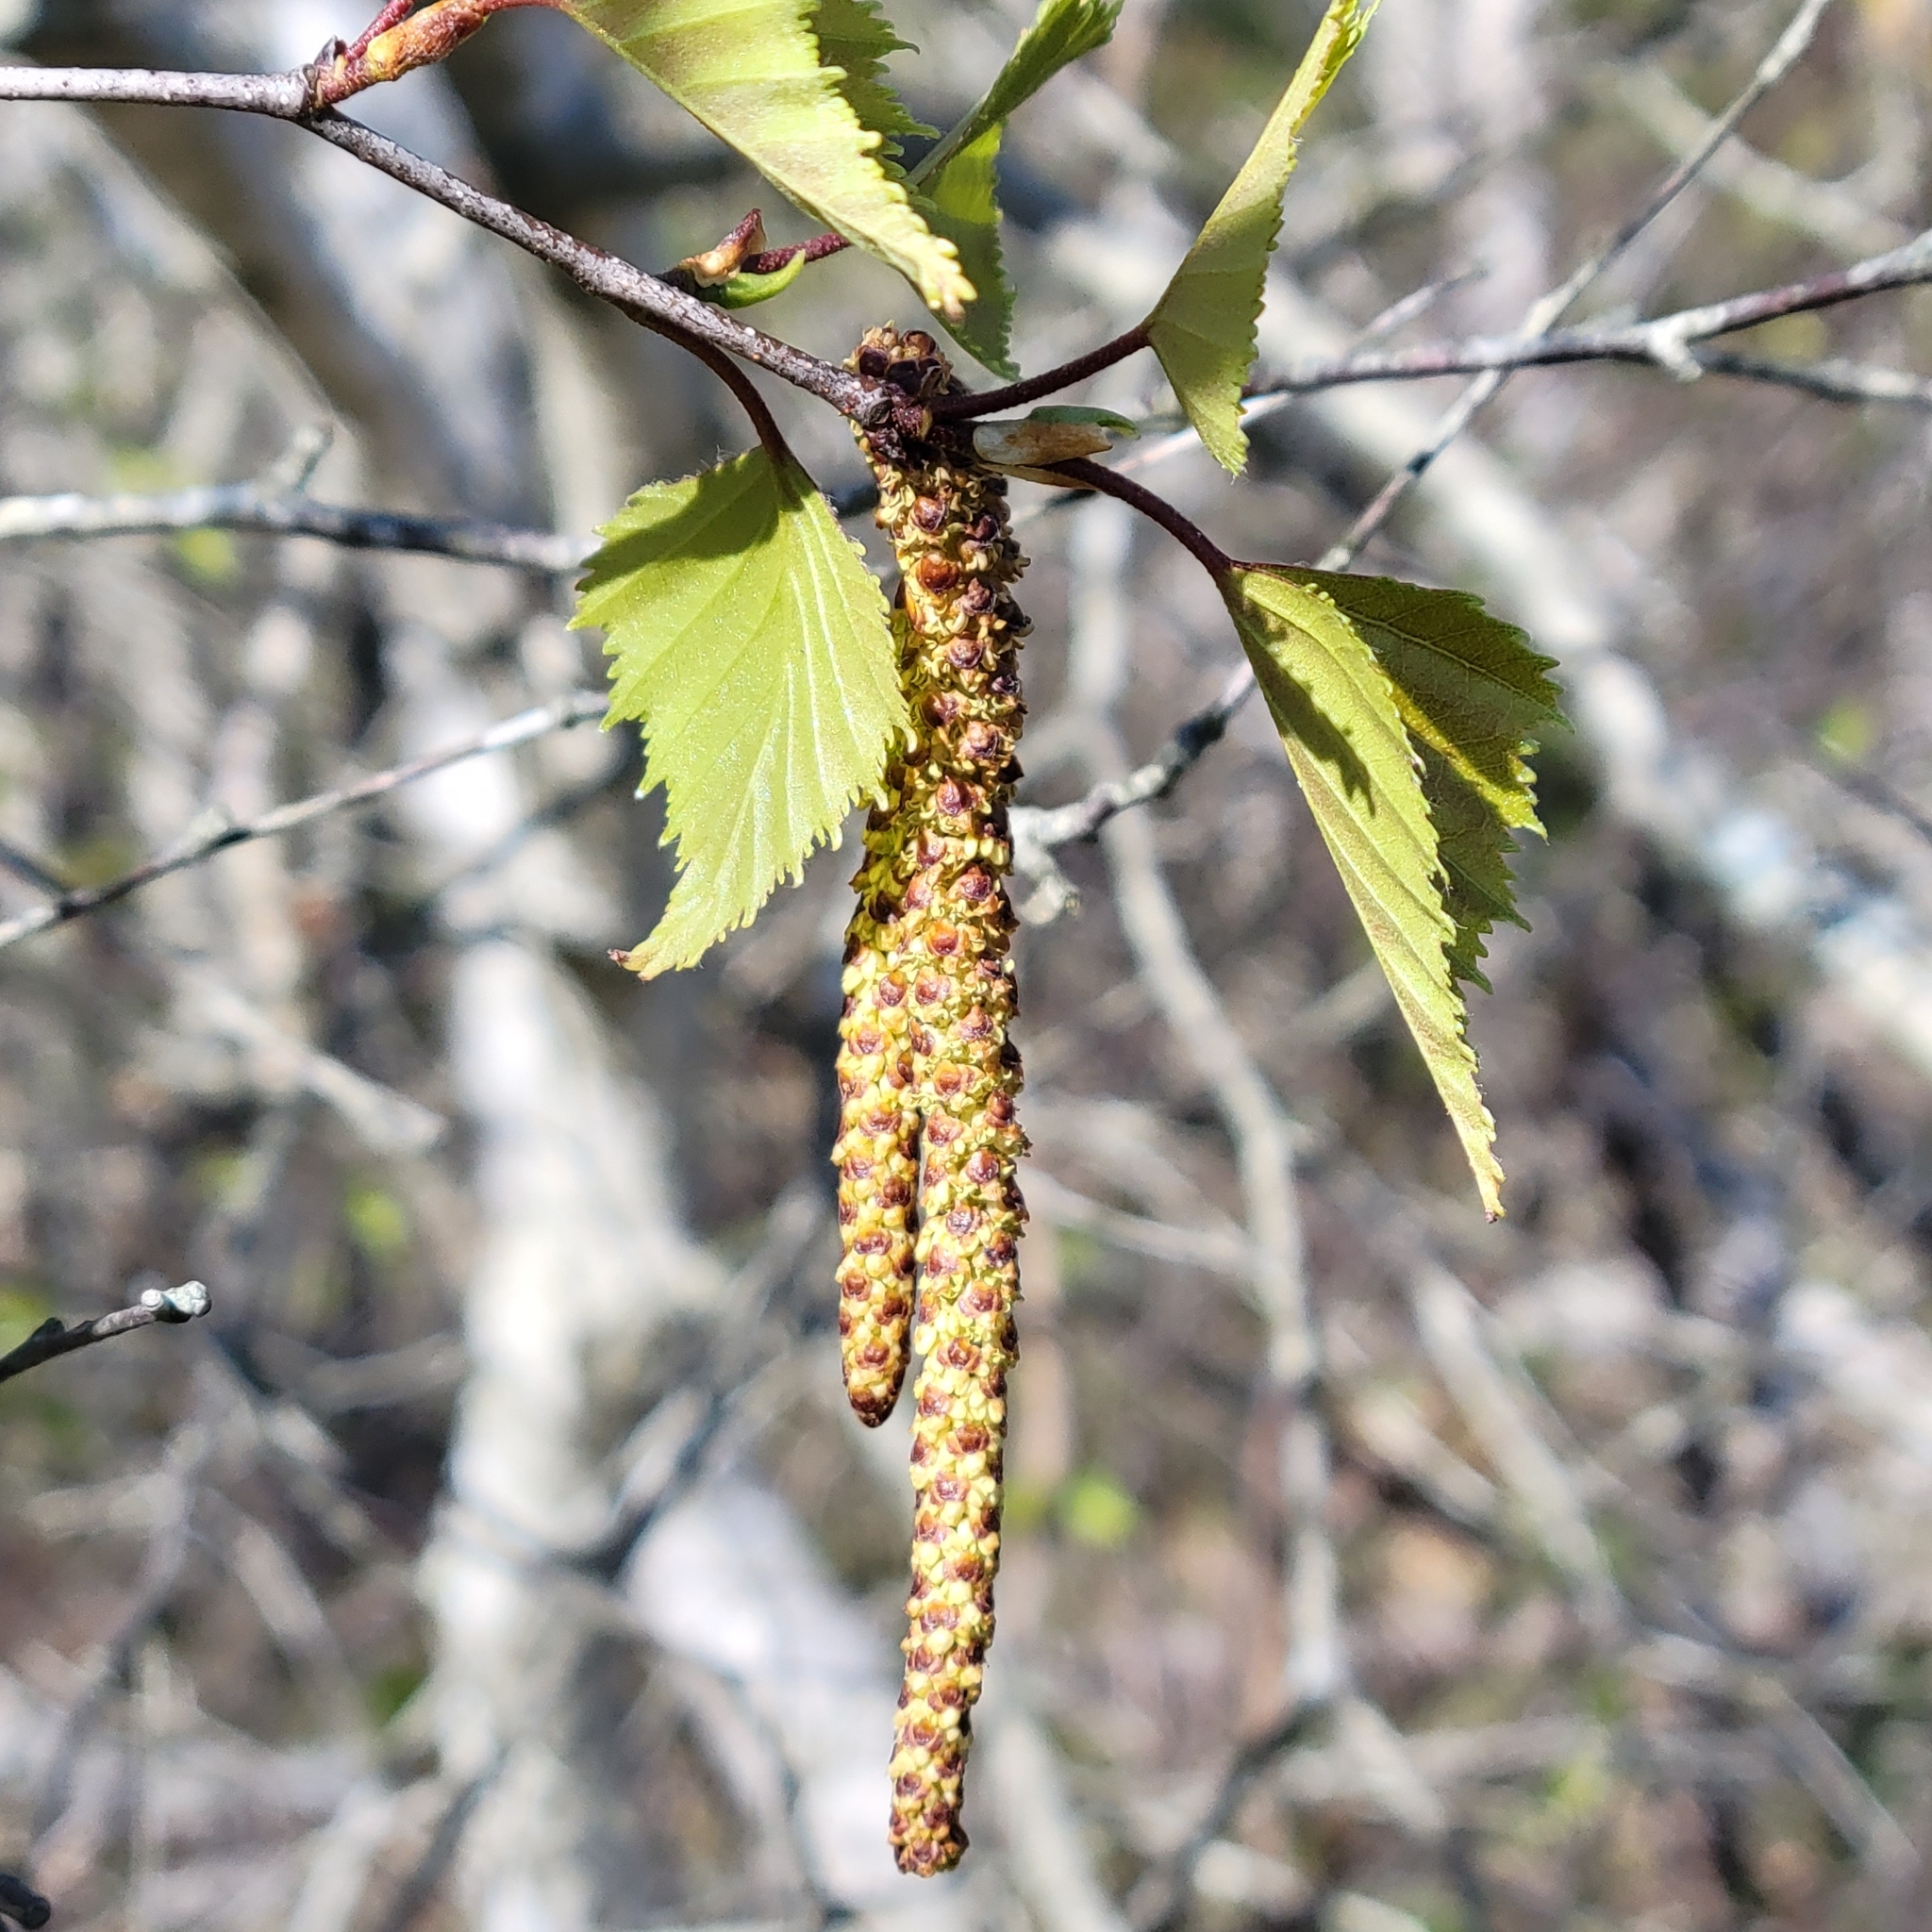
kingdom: Plantae
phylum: Tracheophyta
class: Magnoliopsida
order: Fagales
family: Betulaceae
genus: Betula
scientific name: Betula populifolia
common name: Fire birch
